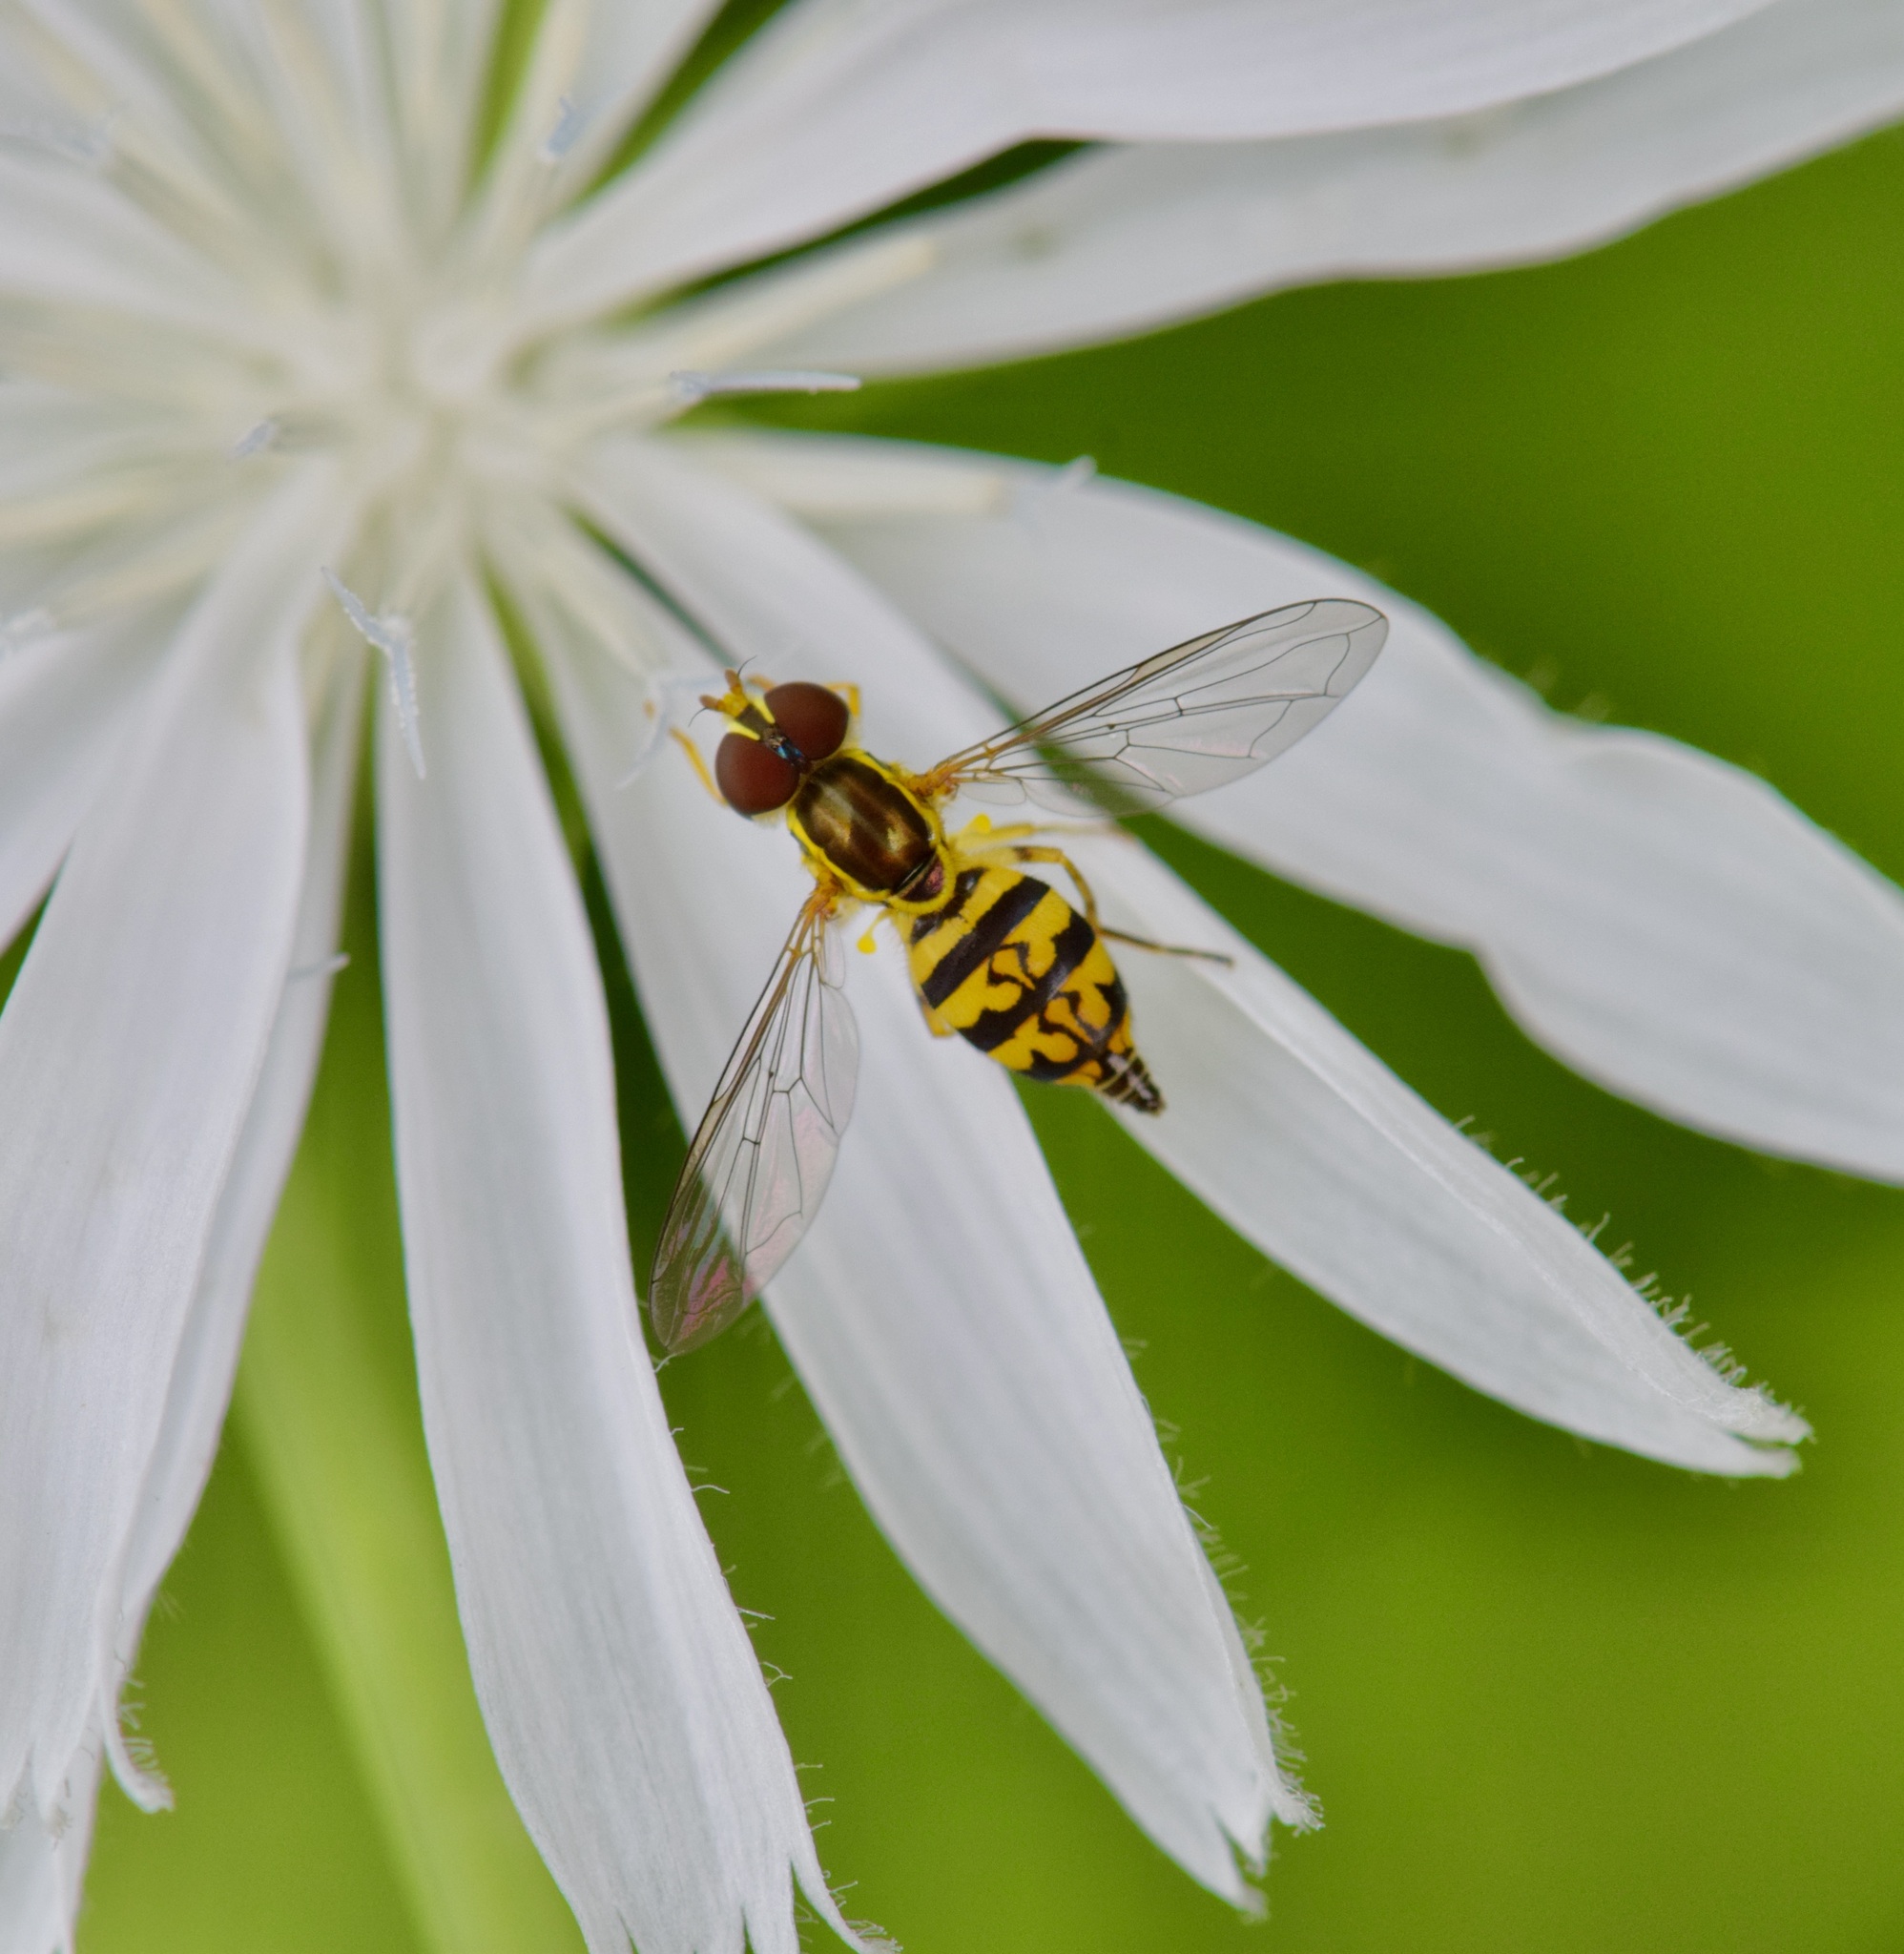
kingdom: Animalia
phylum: Arthropoda
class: Insecta
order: Diptera
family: Syrphidae
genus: Toxomerus
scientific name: Toxomerus geminatus
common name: Eastern calligrapher
